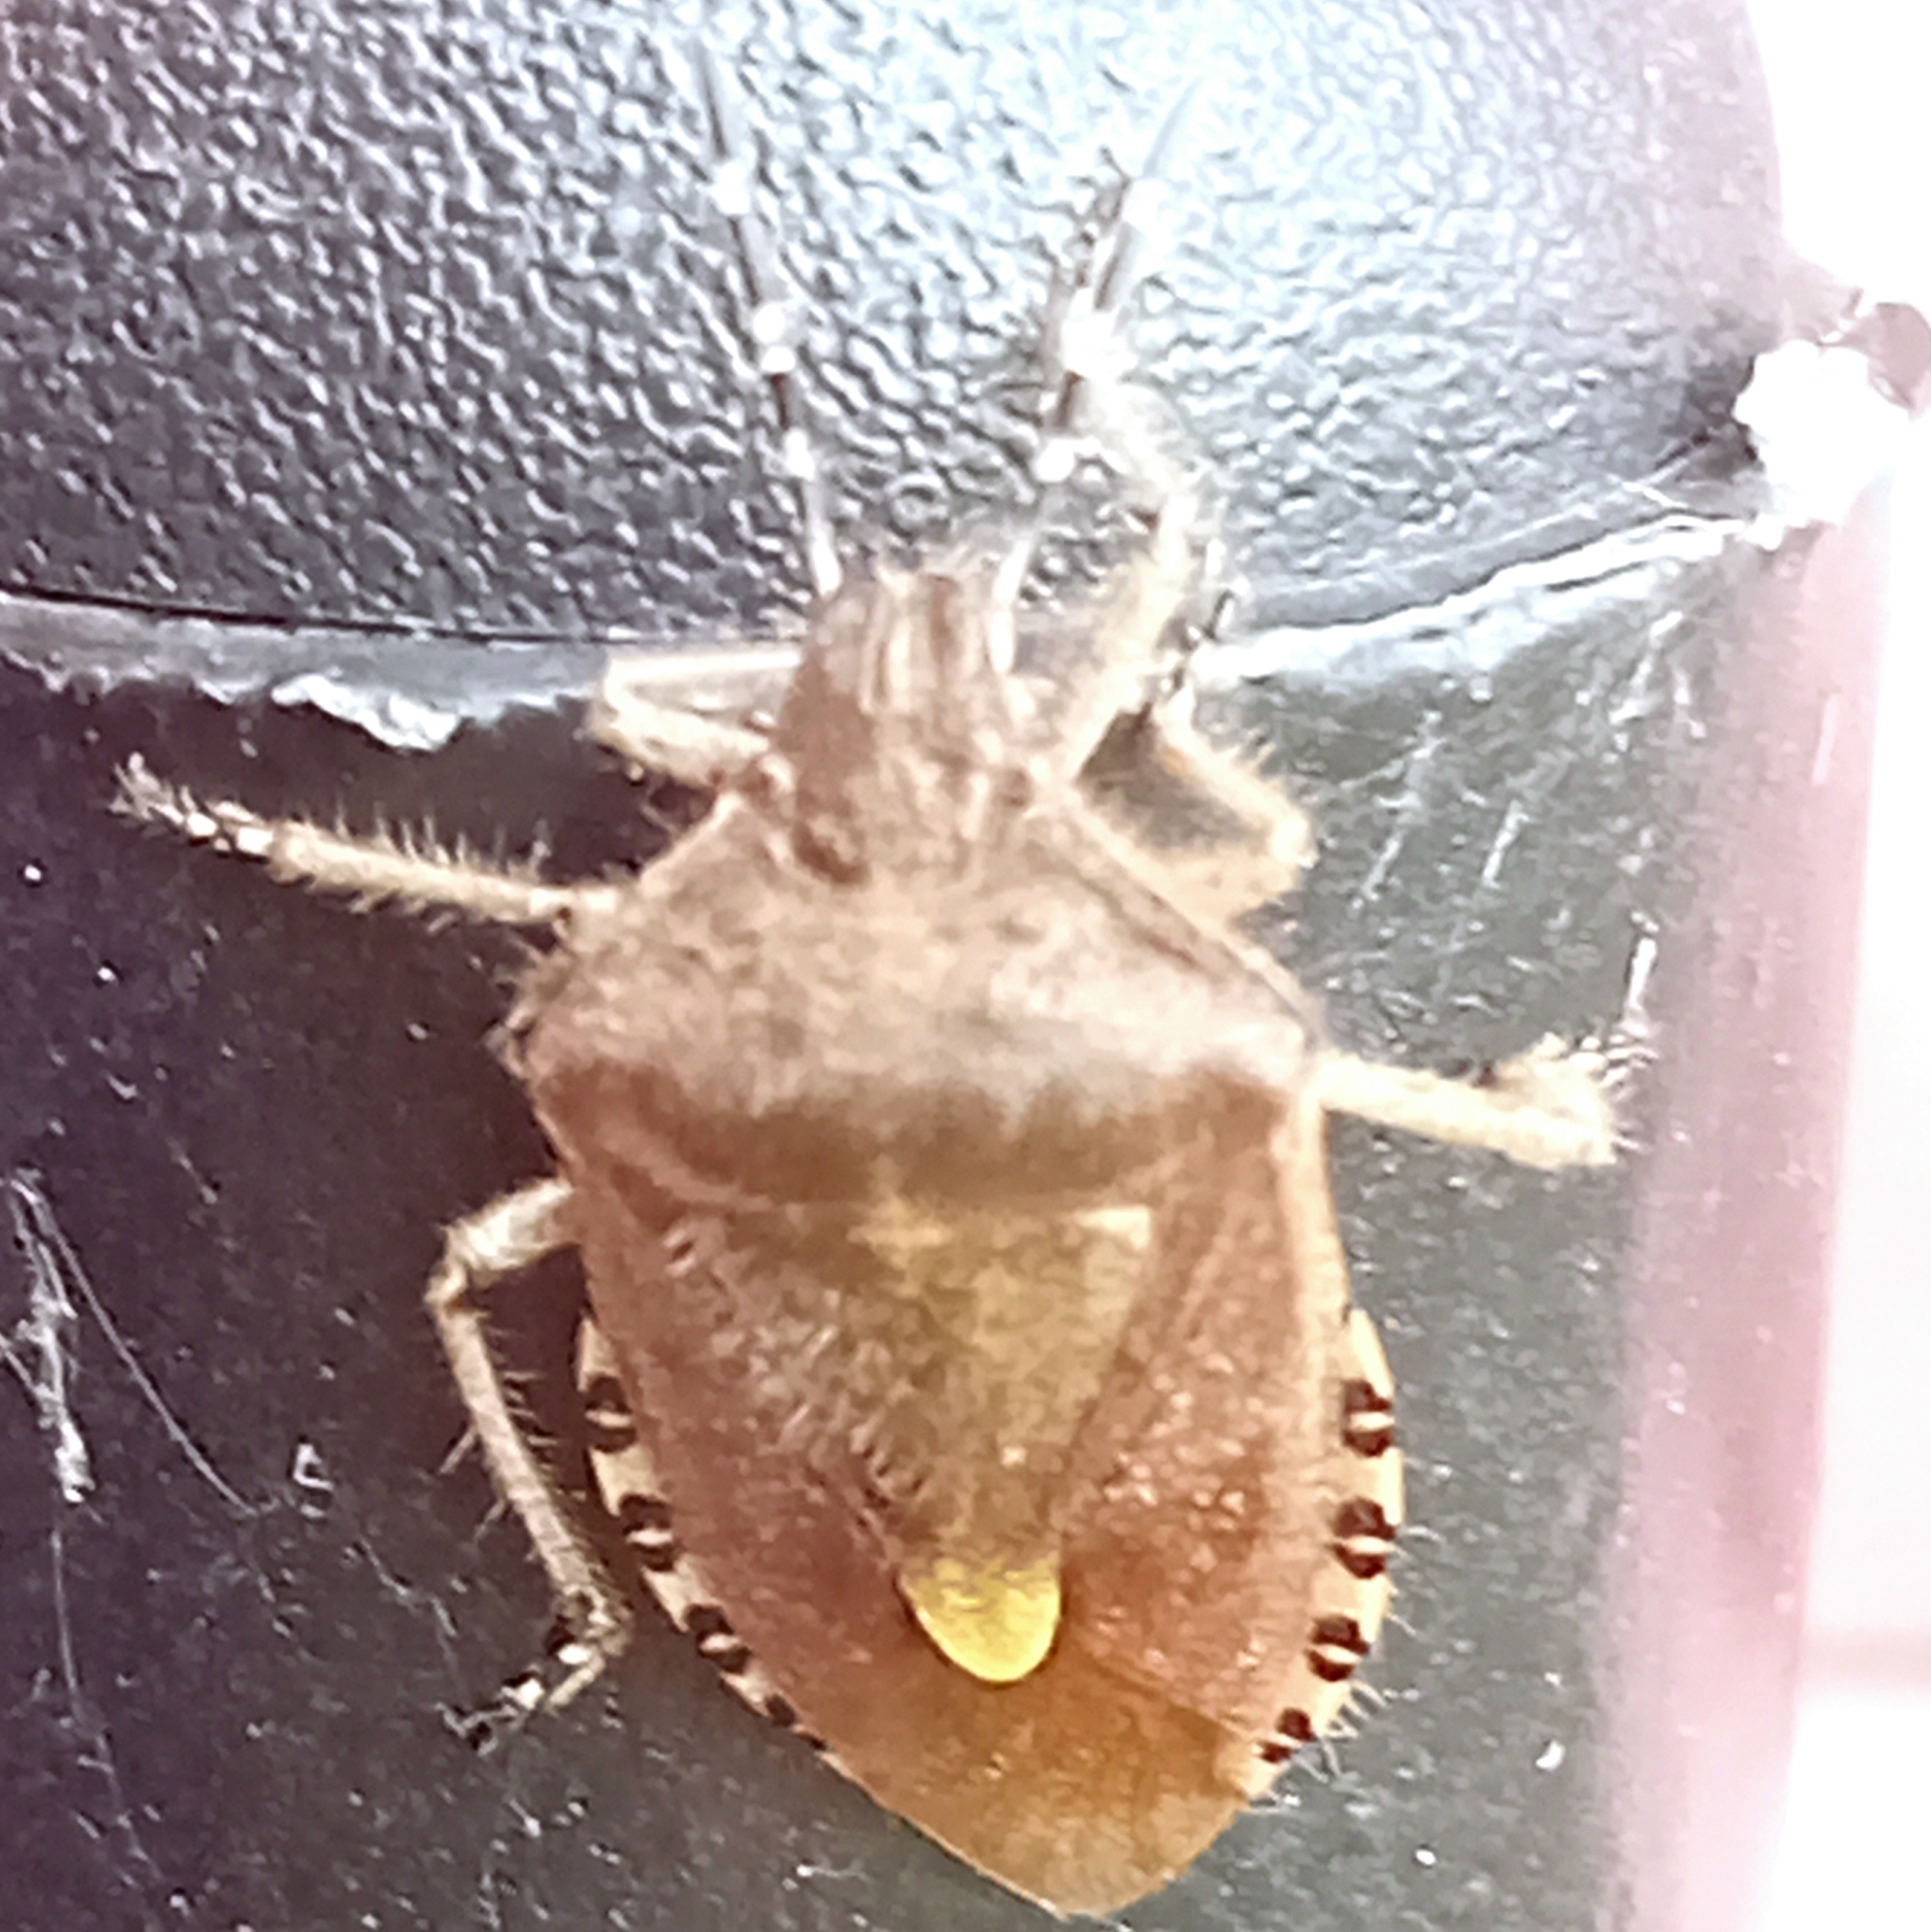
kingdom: Animalia
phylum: Arthropoda
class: Insecta
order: Hemiptera
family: Pentatomidae
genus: Dolycoris
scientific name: Dolycoris baccarum
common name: Sloe bug
